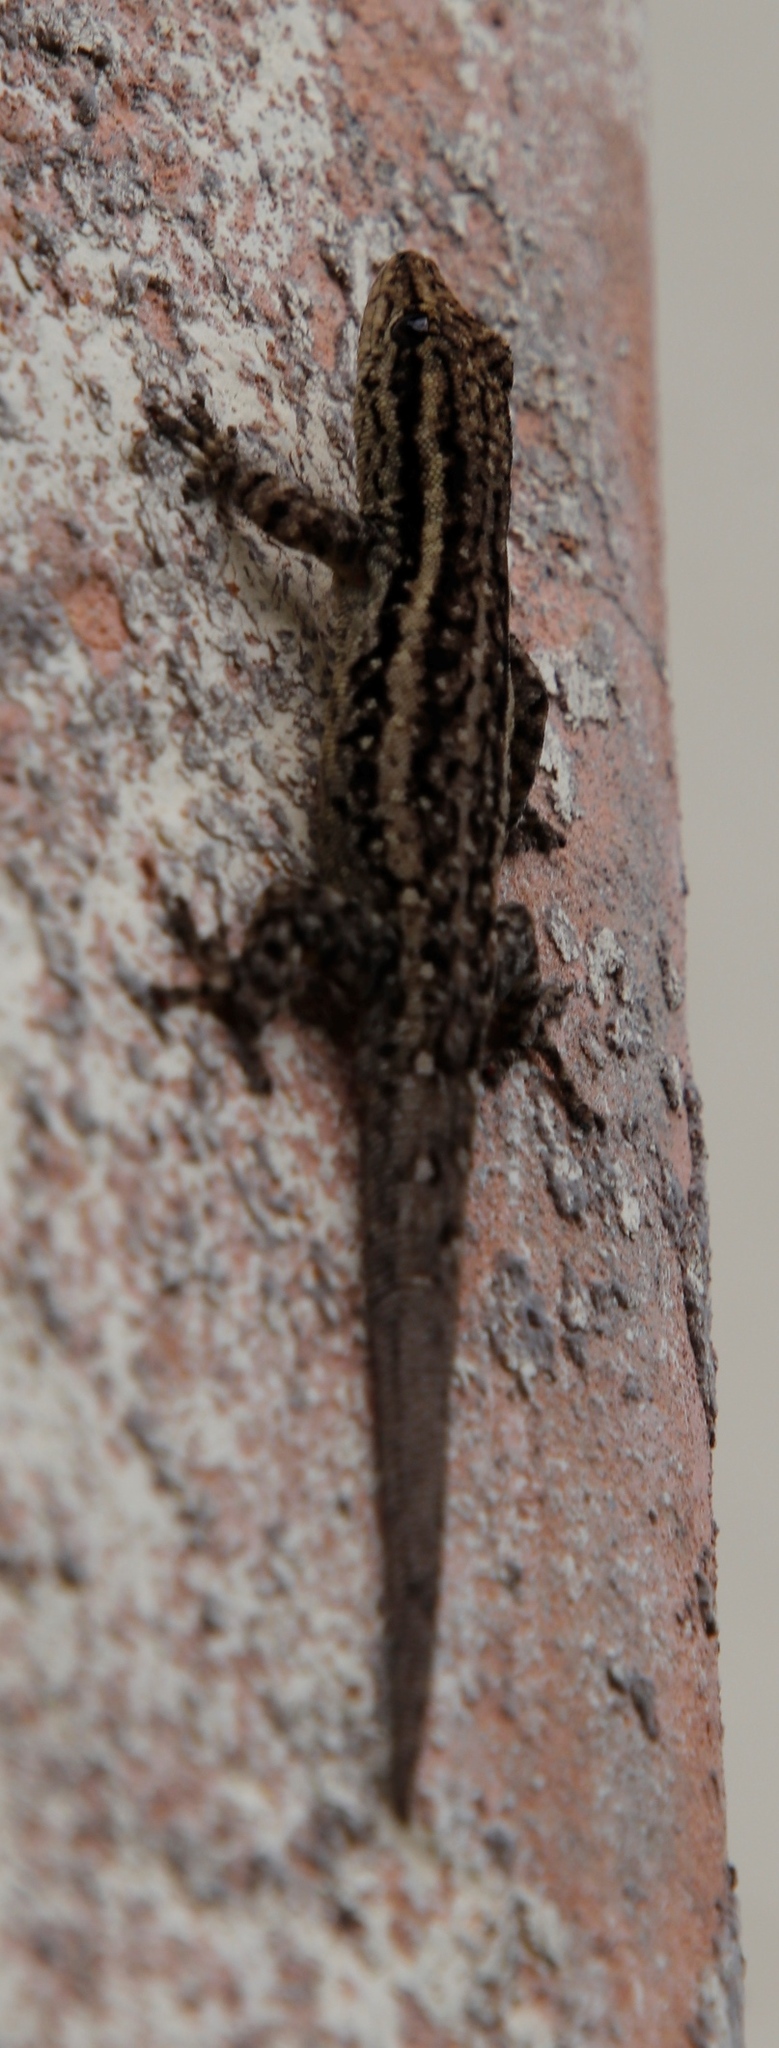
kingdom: Animalia
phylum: Chordata
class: Squamata
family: Gekkonidae
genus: Lygodactylus
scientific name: Lygodactylus capensis
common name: Cape dwarf gecko
